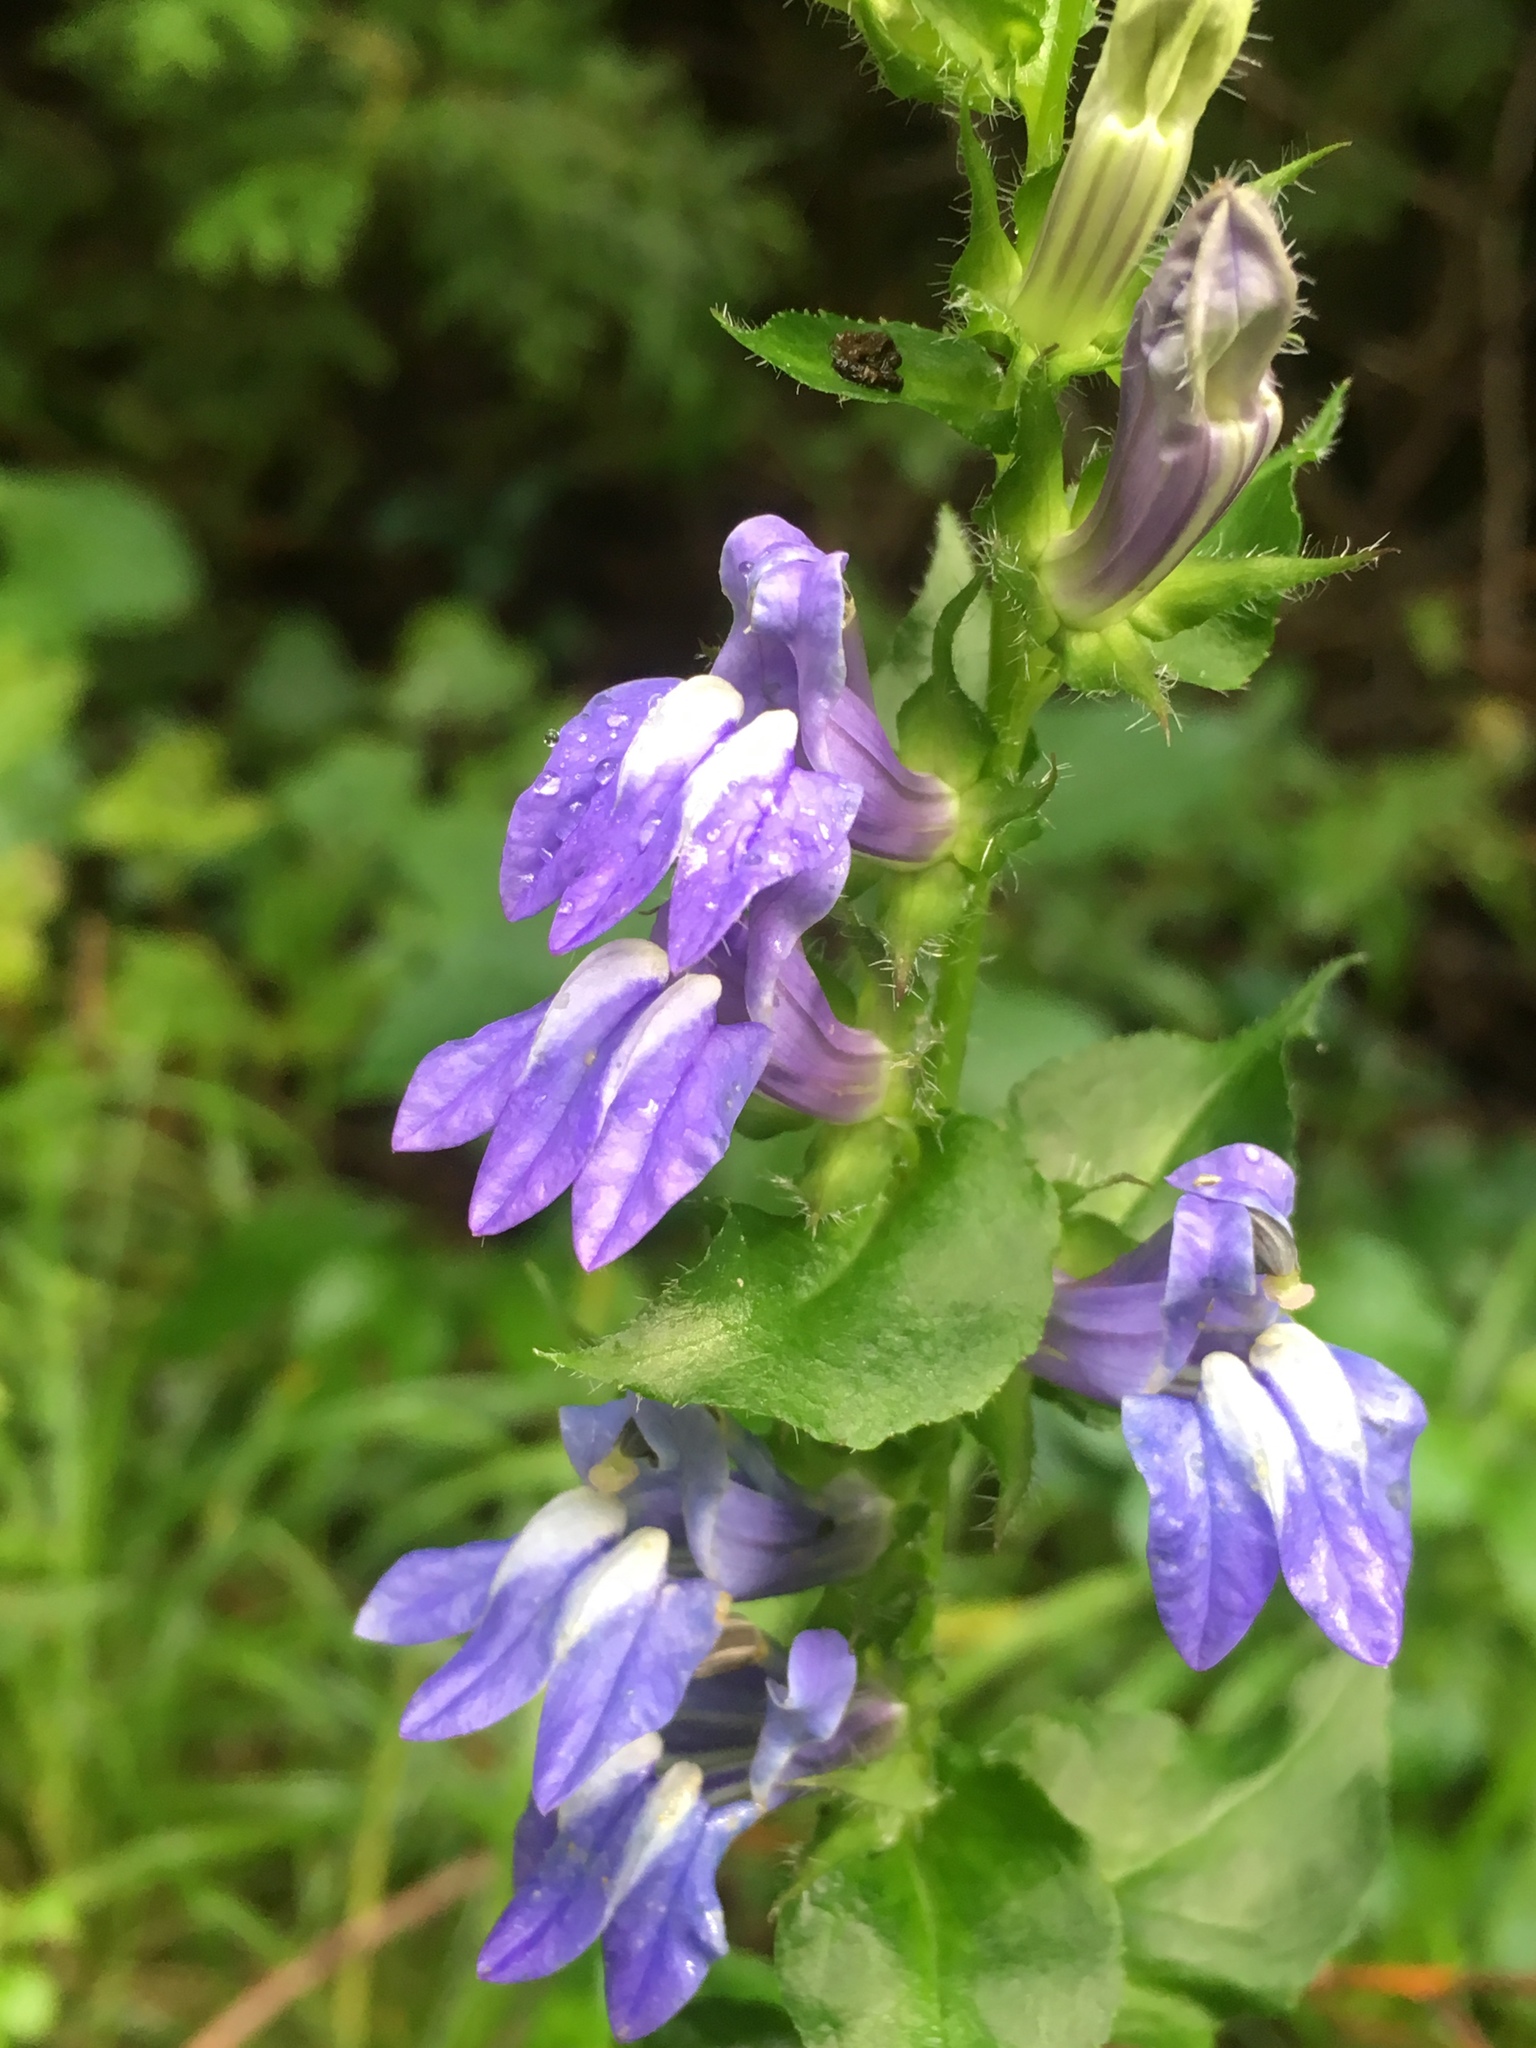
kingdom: Plantae
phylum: Tracheophyta
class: Magnoliopsida
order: Asterales
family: Campanulaceae
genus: Lobelia
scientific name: Lobelia siphilitica
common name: Great lobelia
